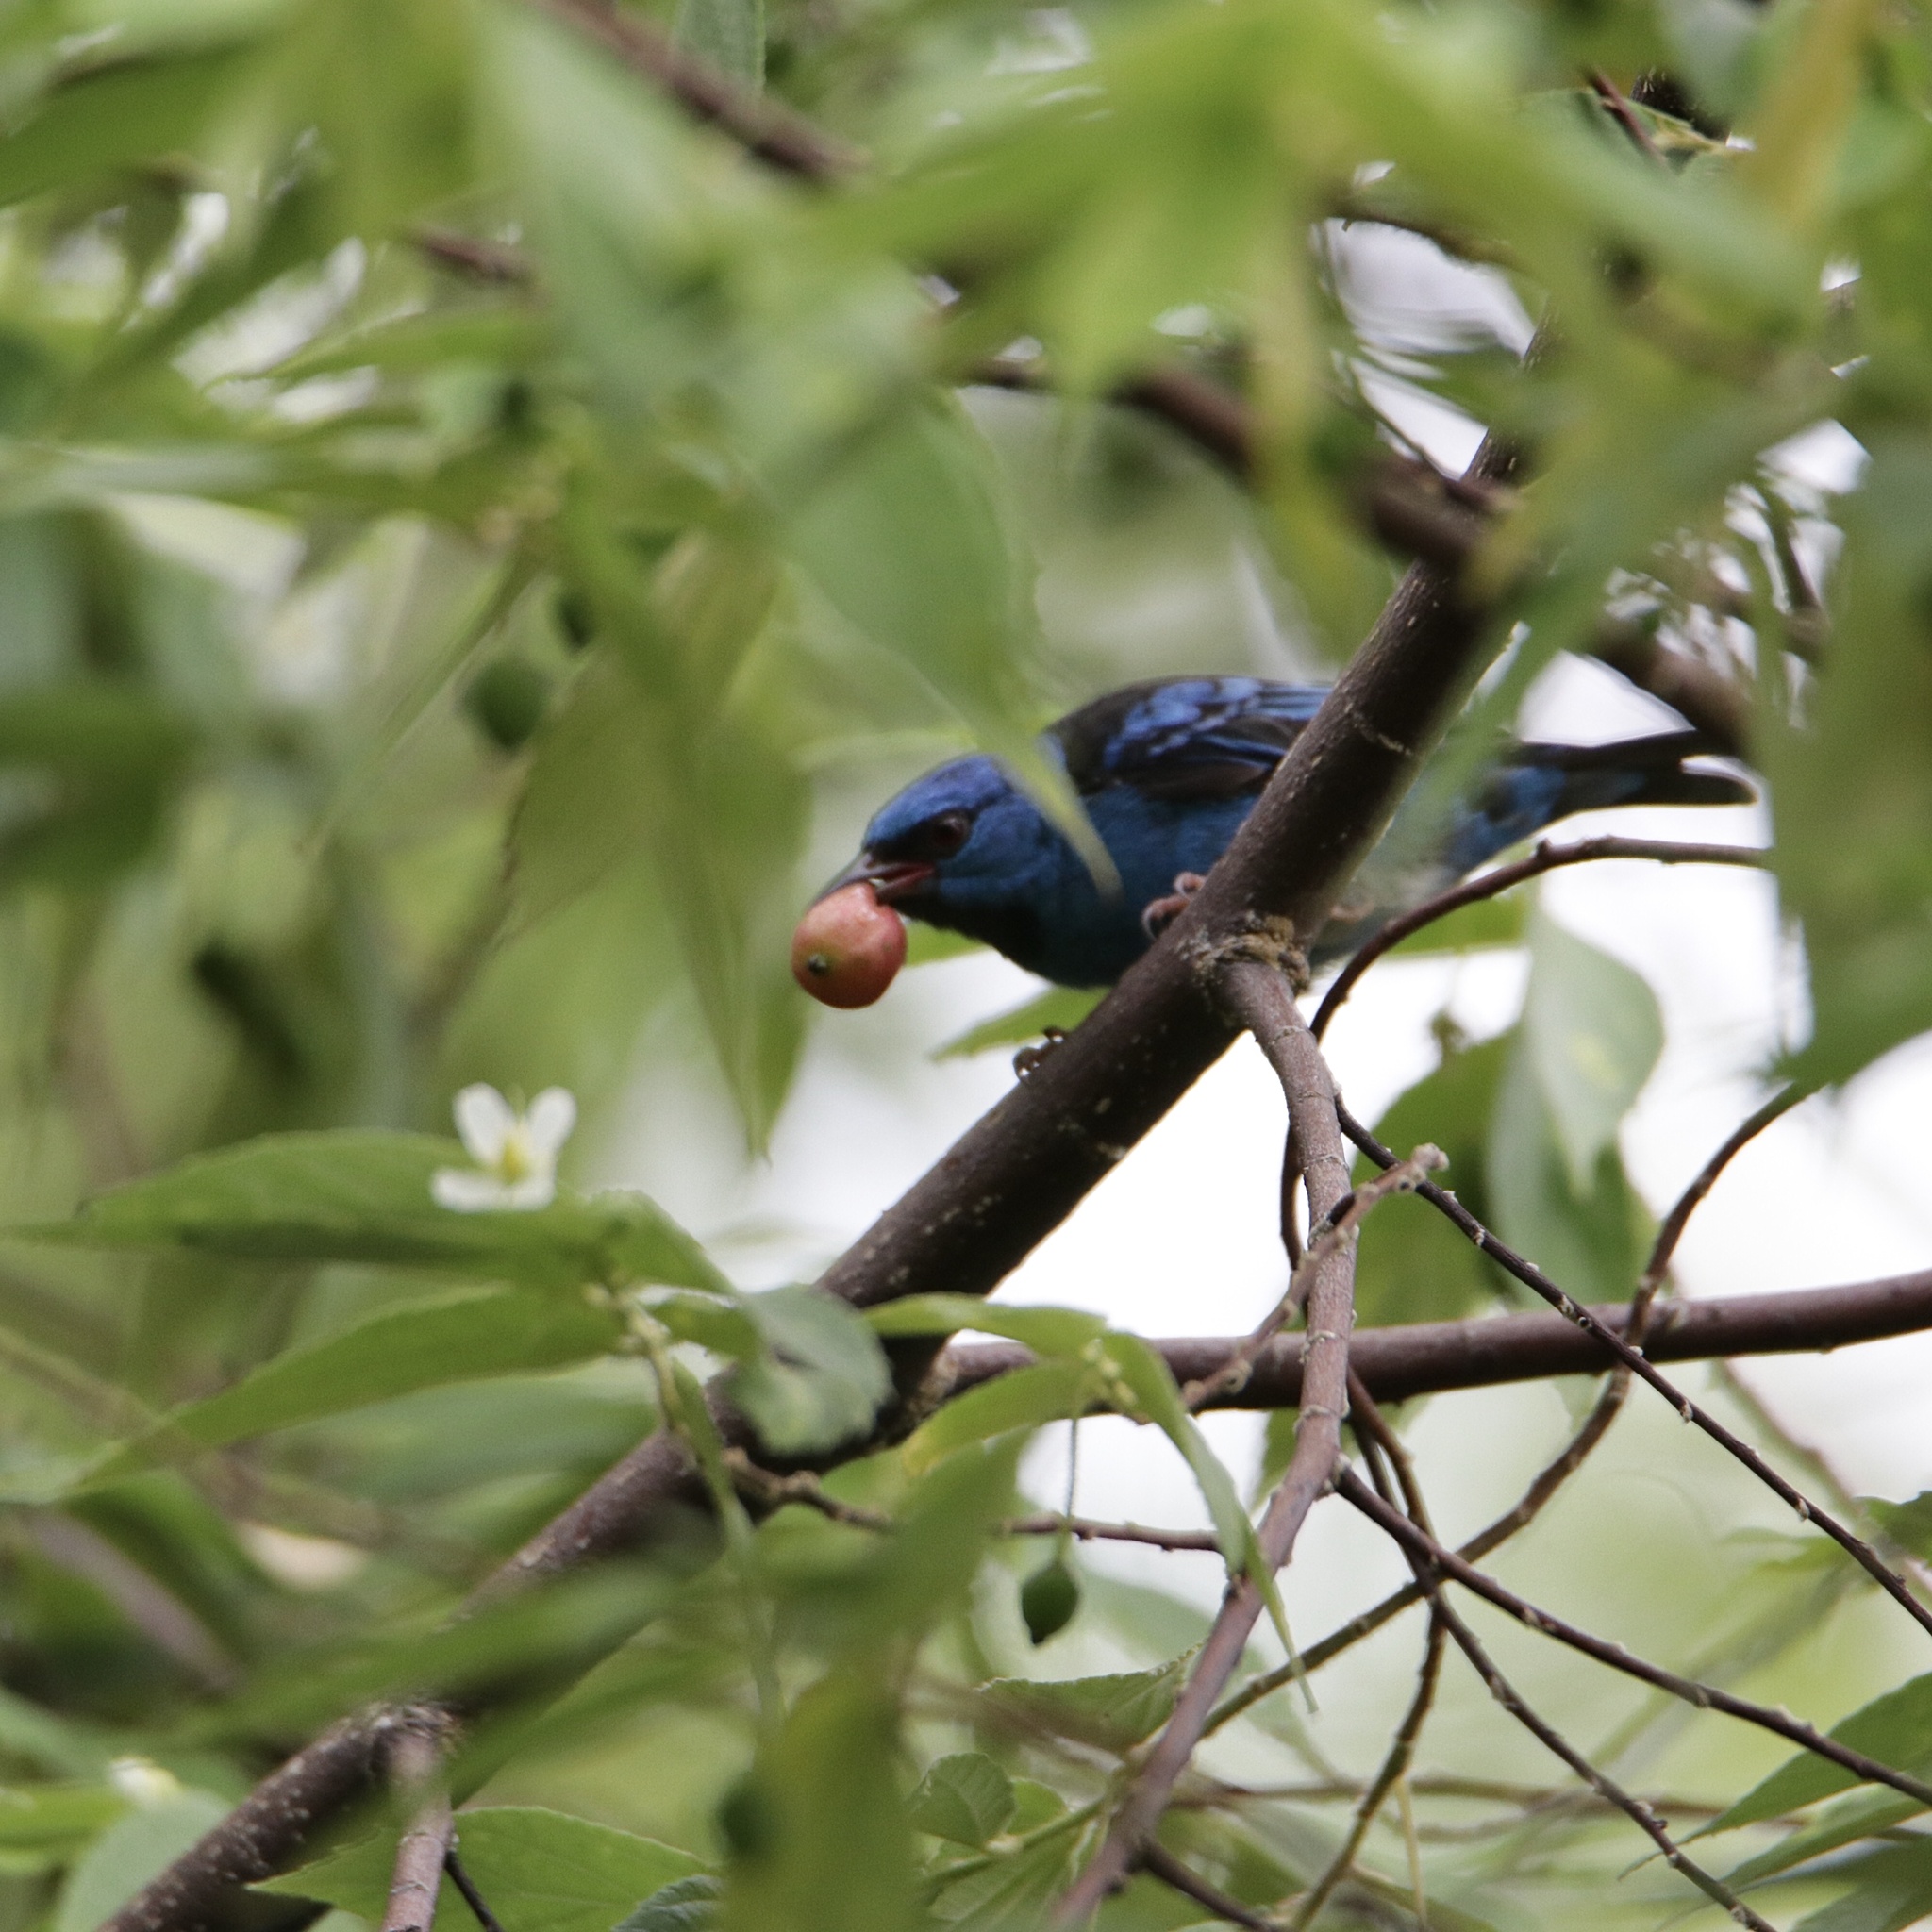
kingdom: Animalia
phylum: Chordata
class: Aves
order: Passeriformes
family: Thraupidae
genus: Dacnis
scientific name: Dacnis cayana
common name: Blue dacnis
